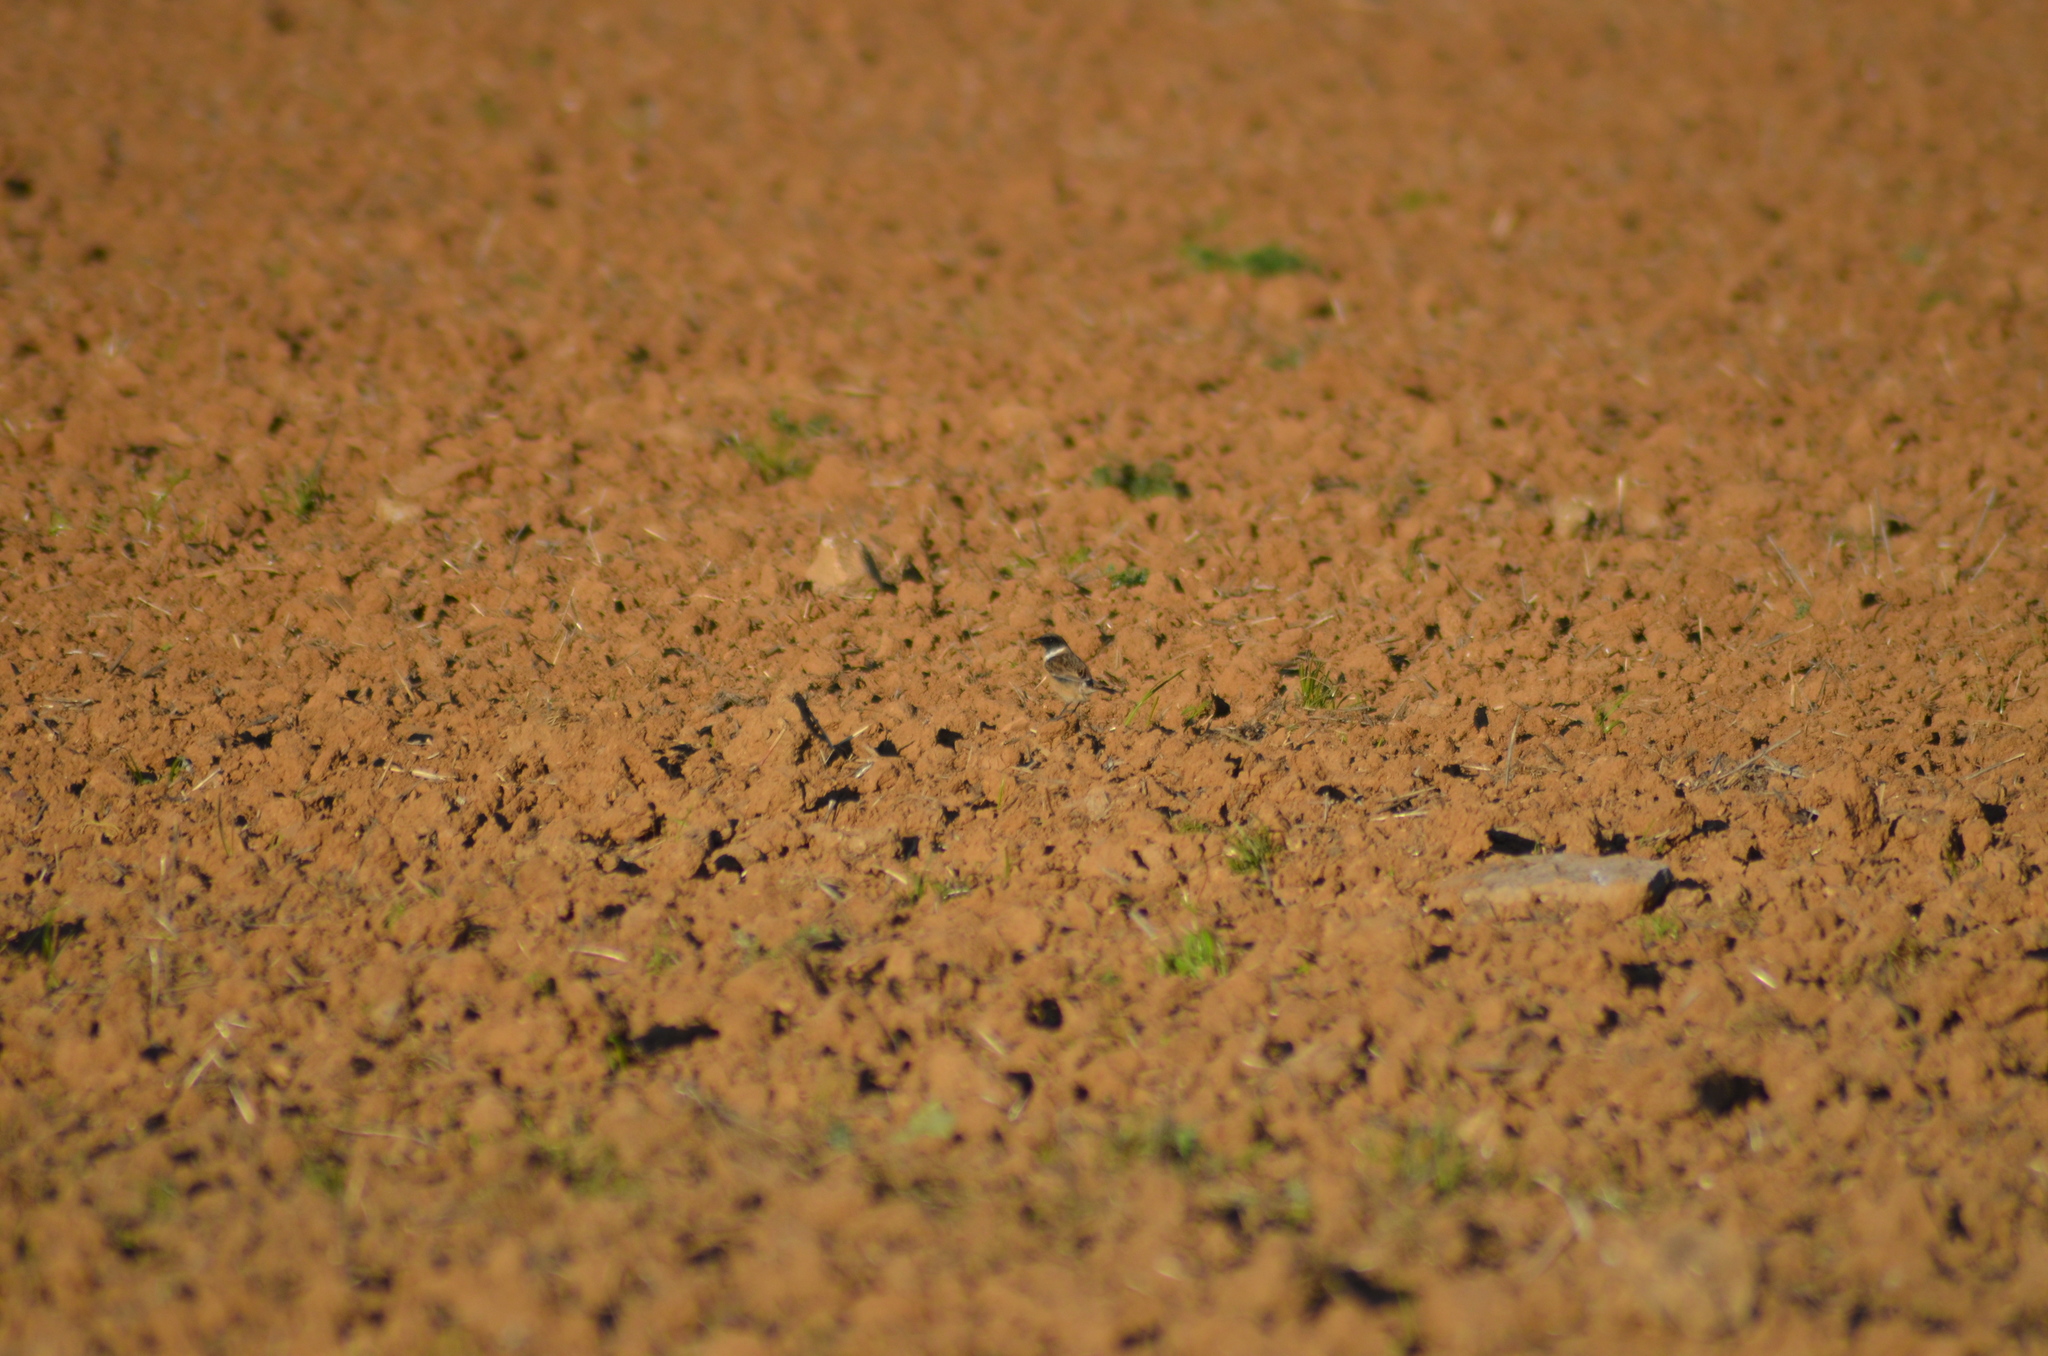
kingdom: Animalia
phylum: Chordata
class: Aves
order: Passeriformes
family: Muscicapidae
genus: Saxicola
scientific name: Saxicola rubicola
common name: European stonechat
